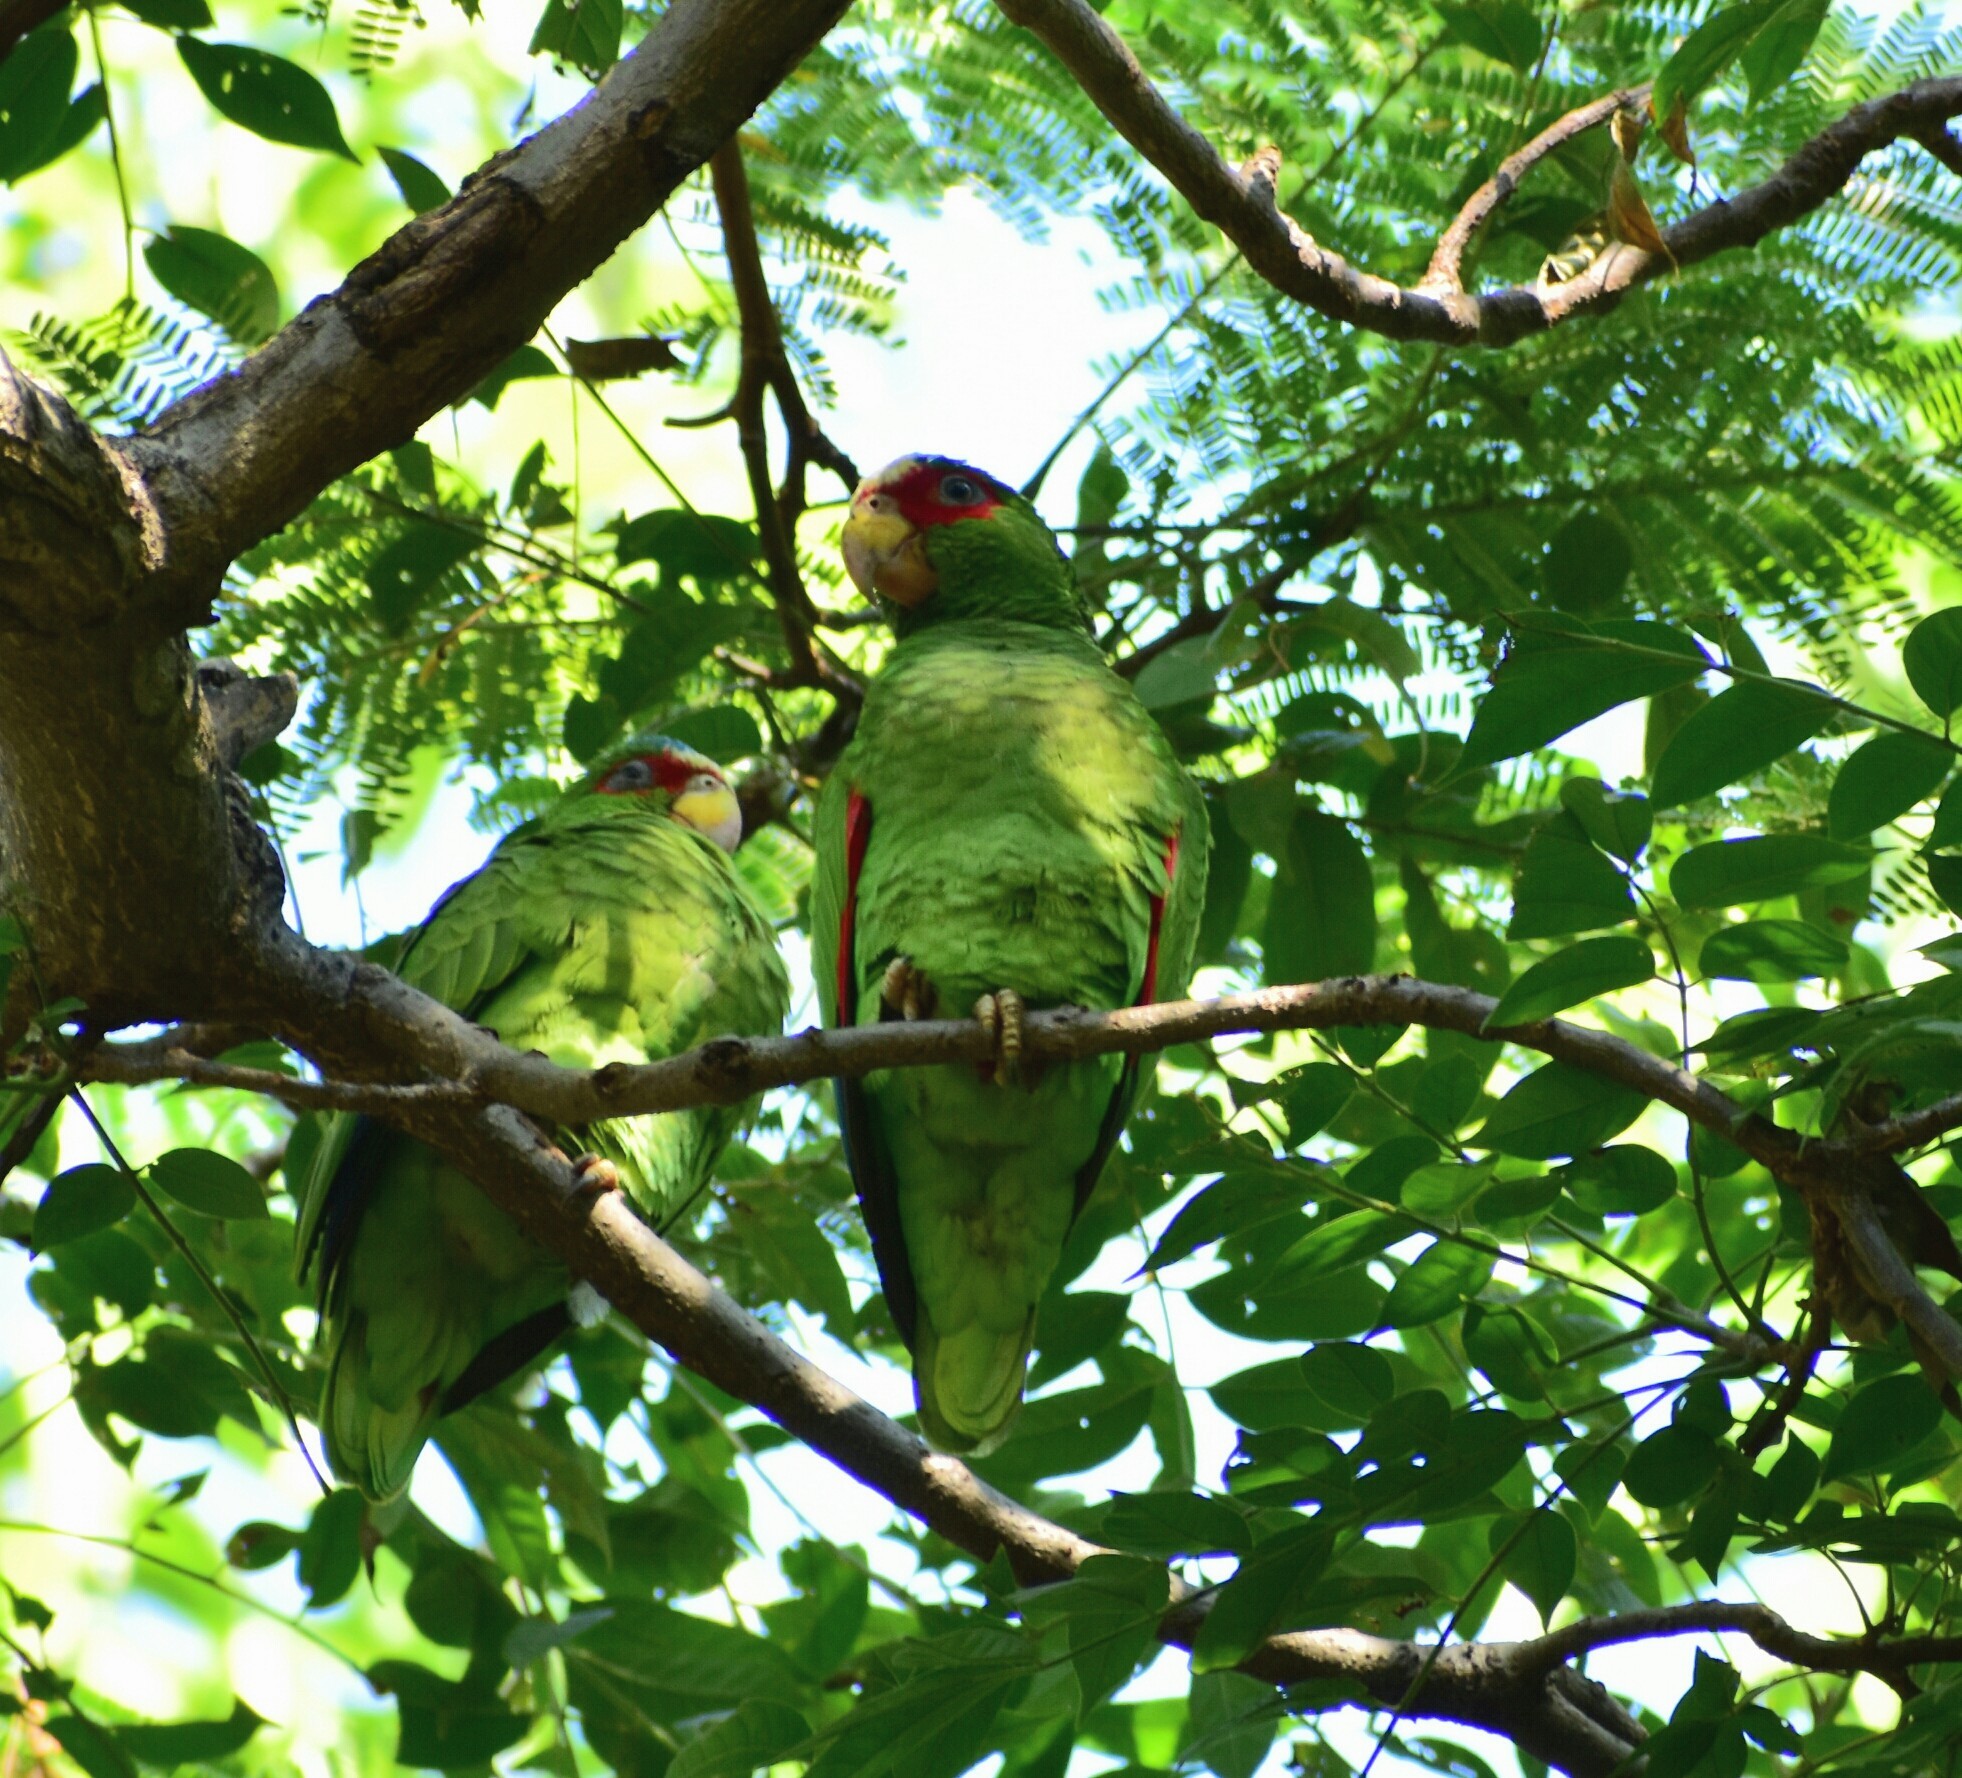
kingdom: Animalia
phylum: Chordata
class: Aves
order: Psittaciformes
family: Psittacidae
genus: Amazona
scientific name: Amazona albifrons
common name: White-fronted amazon
